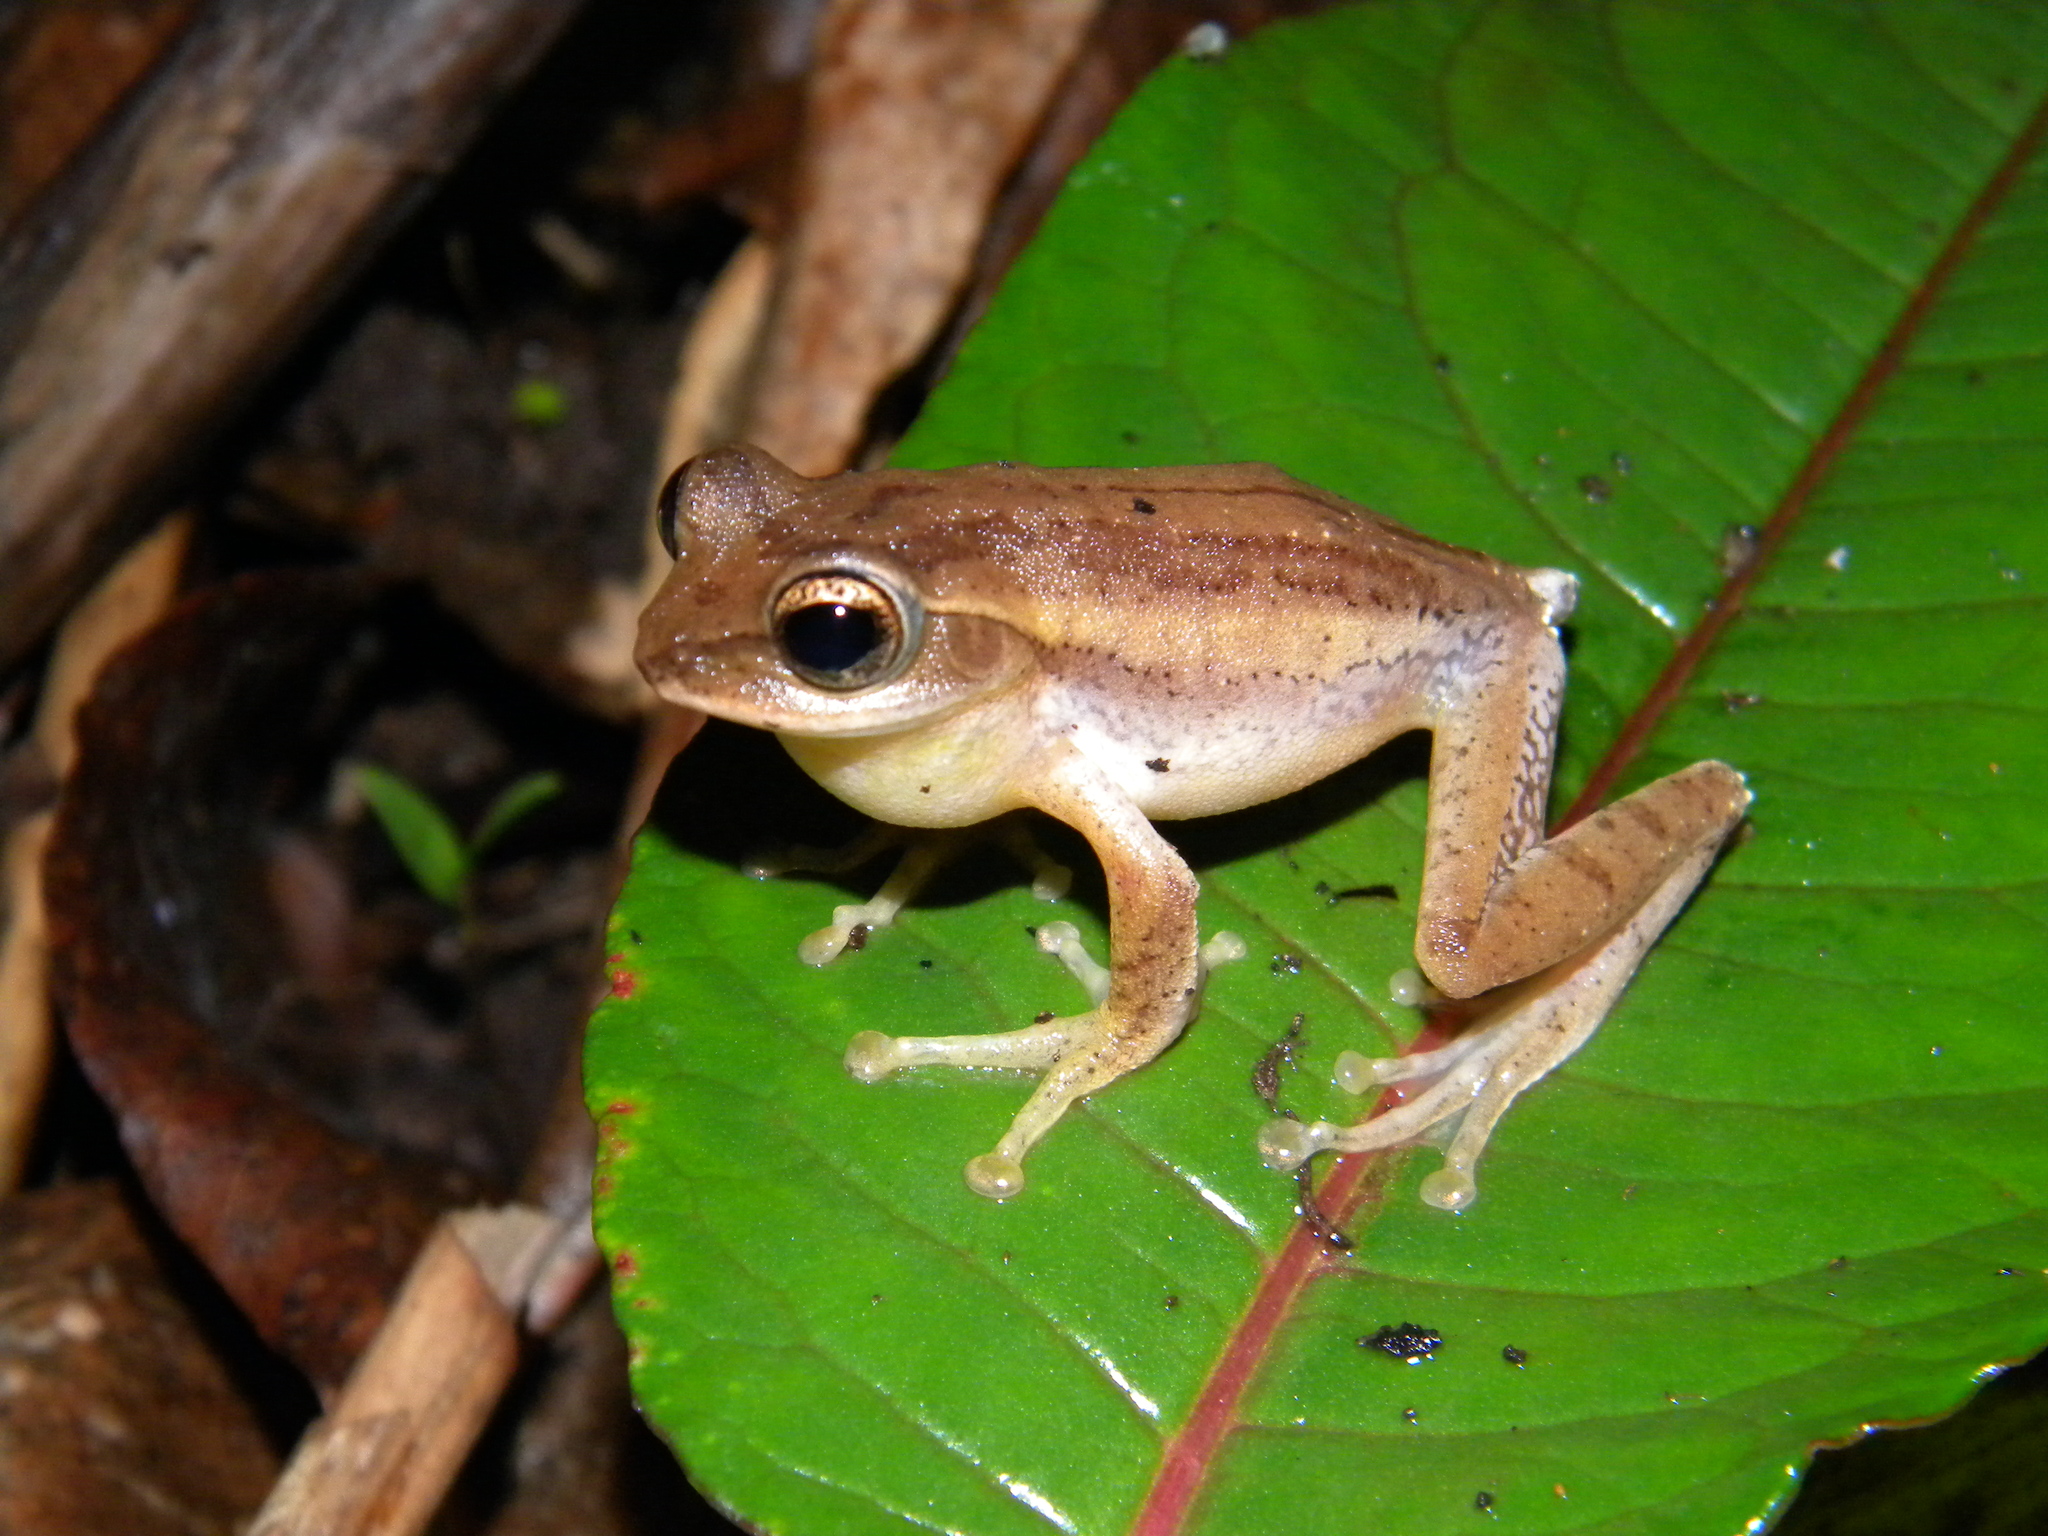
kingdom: Animalia
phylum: Chordata
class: Amphibia
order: Anura
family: Rhacophoridae
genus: Beddomixalus
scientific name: Beddomixalus bijui
